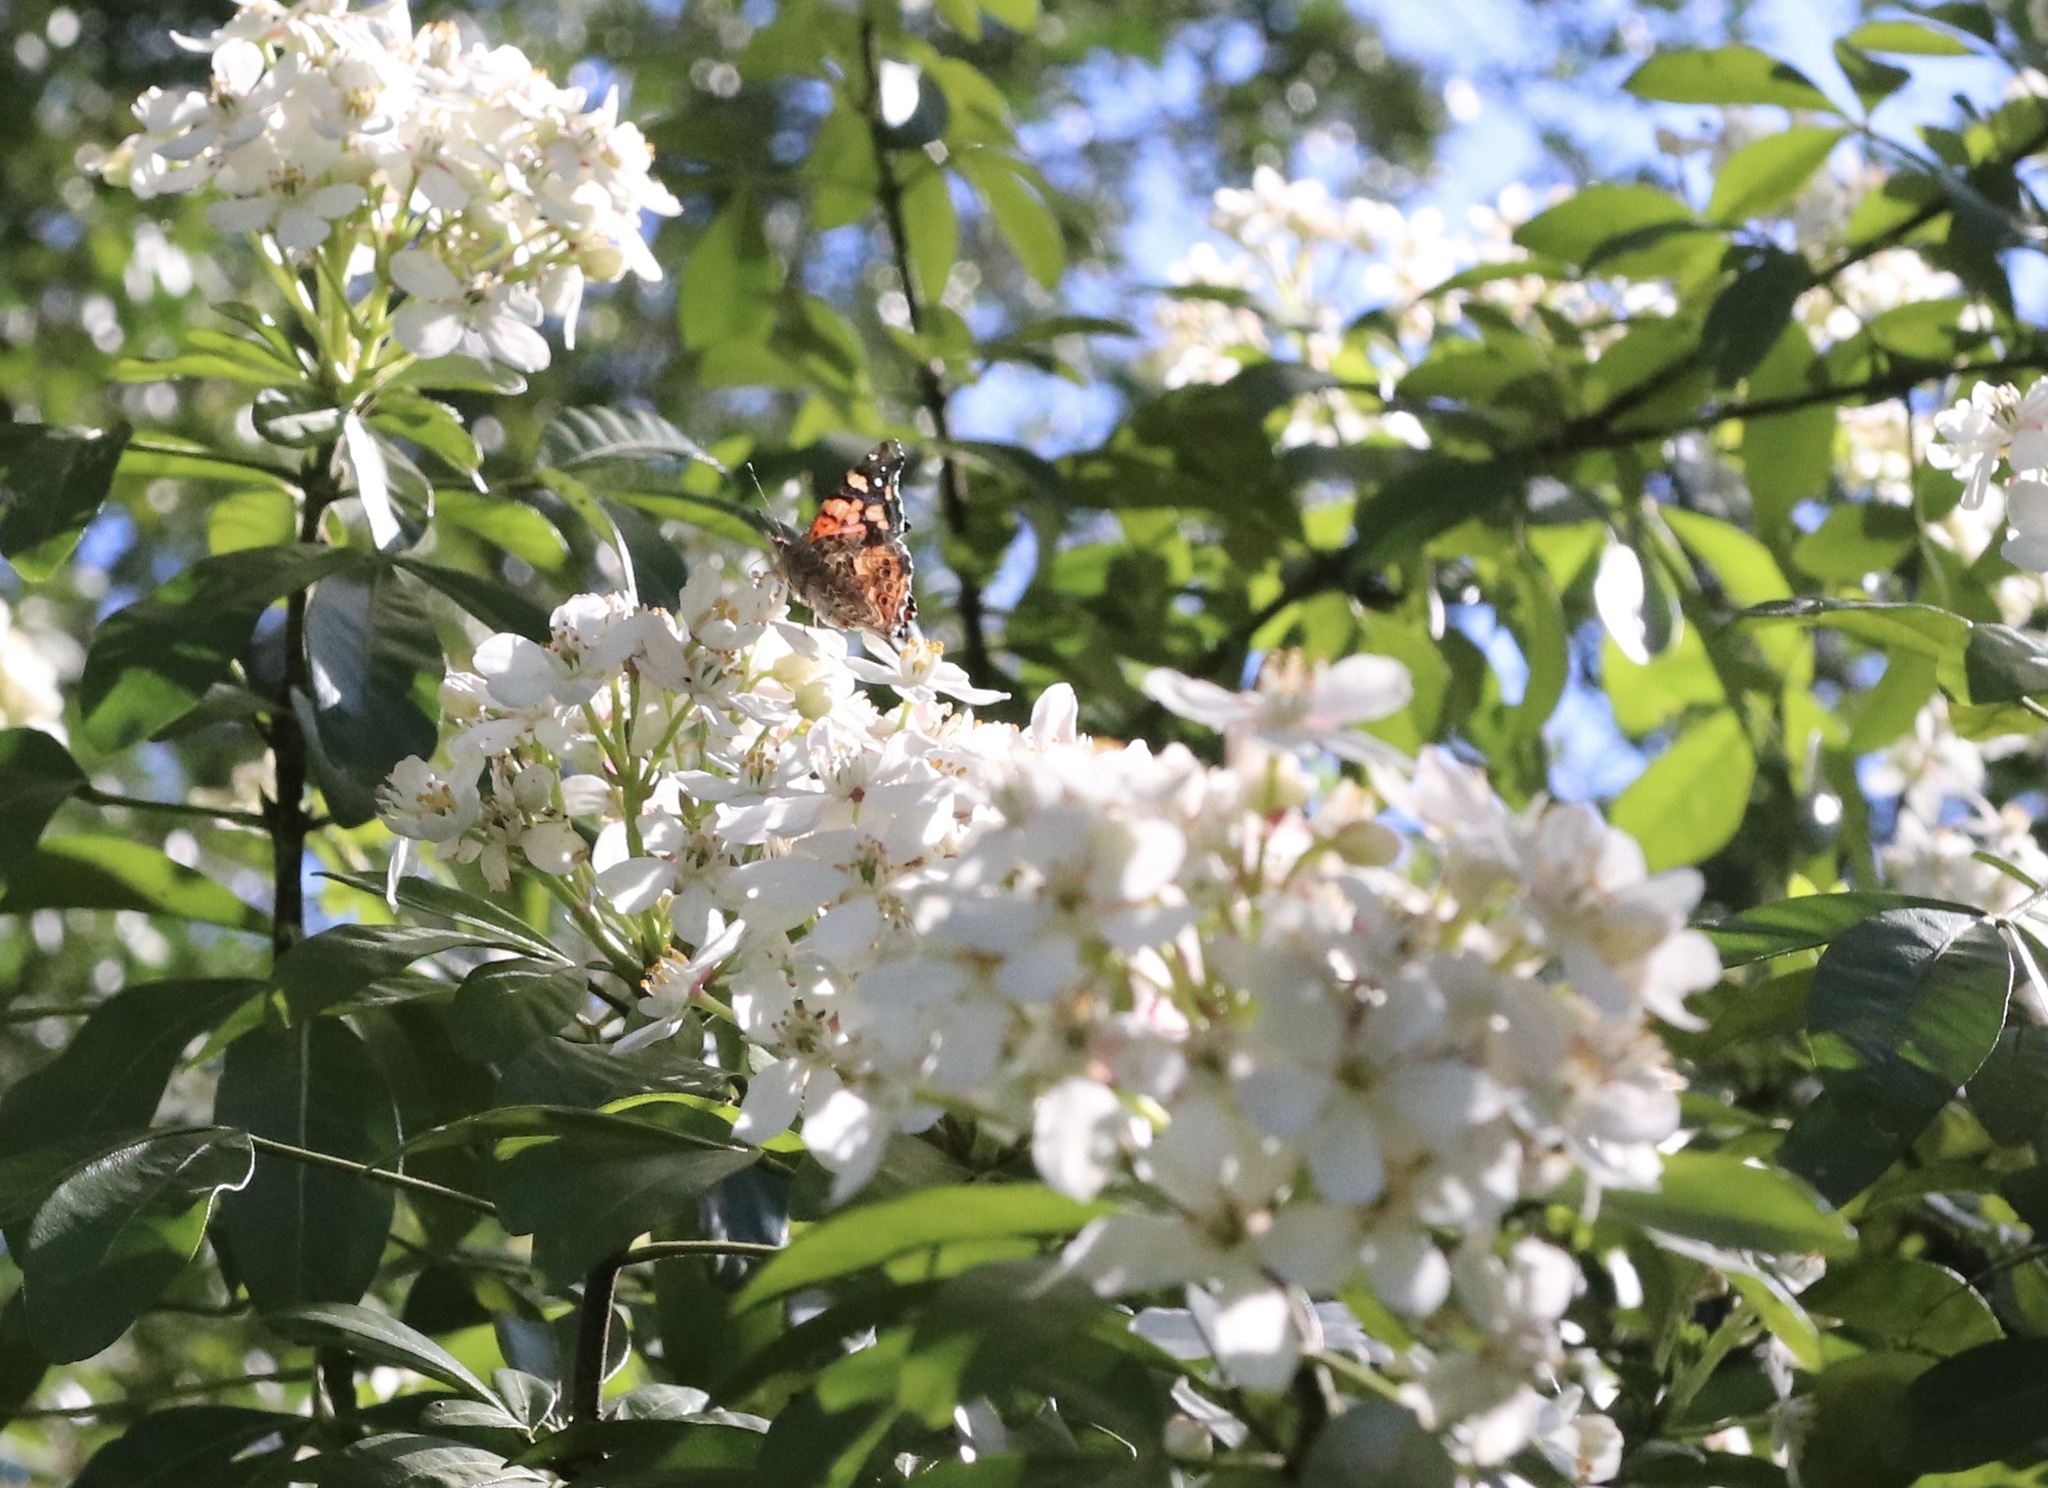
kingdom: Animalia
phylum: Arthropoda
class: Insecta
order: Lepidoptera
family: Nymphalidae
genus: Vanessa
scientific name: Vanessa carye
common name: Subtropical lady
